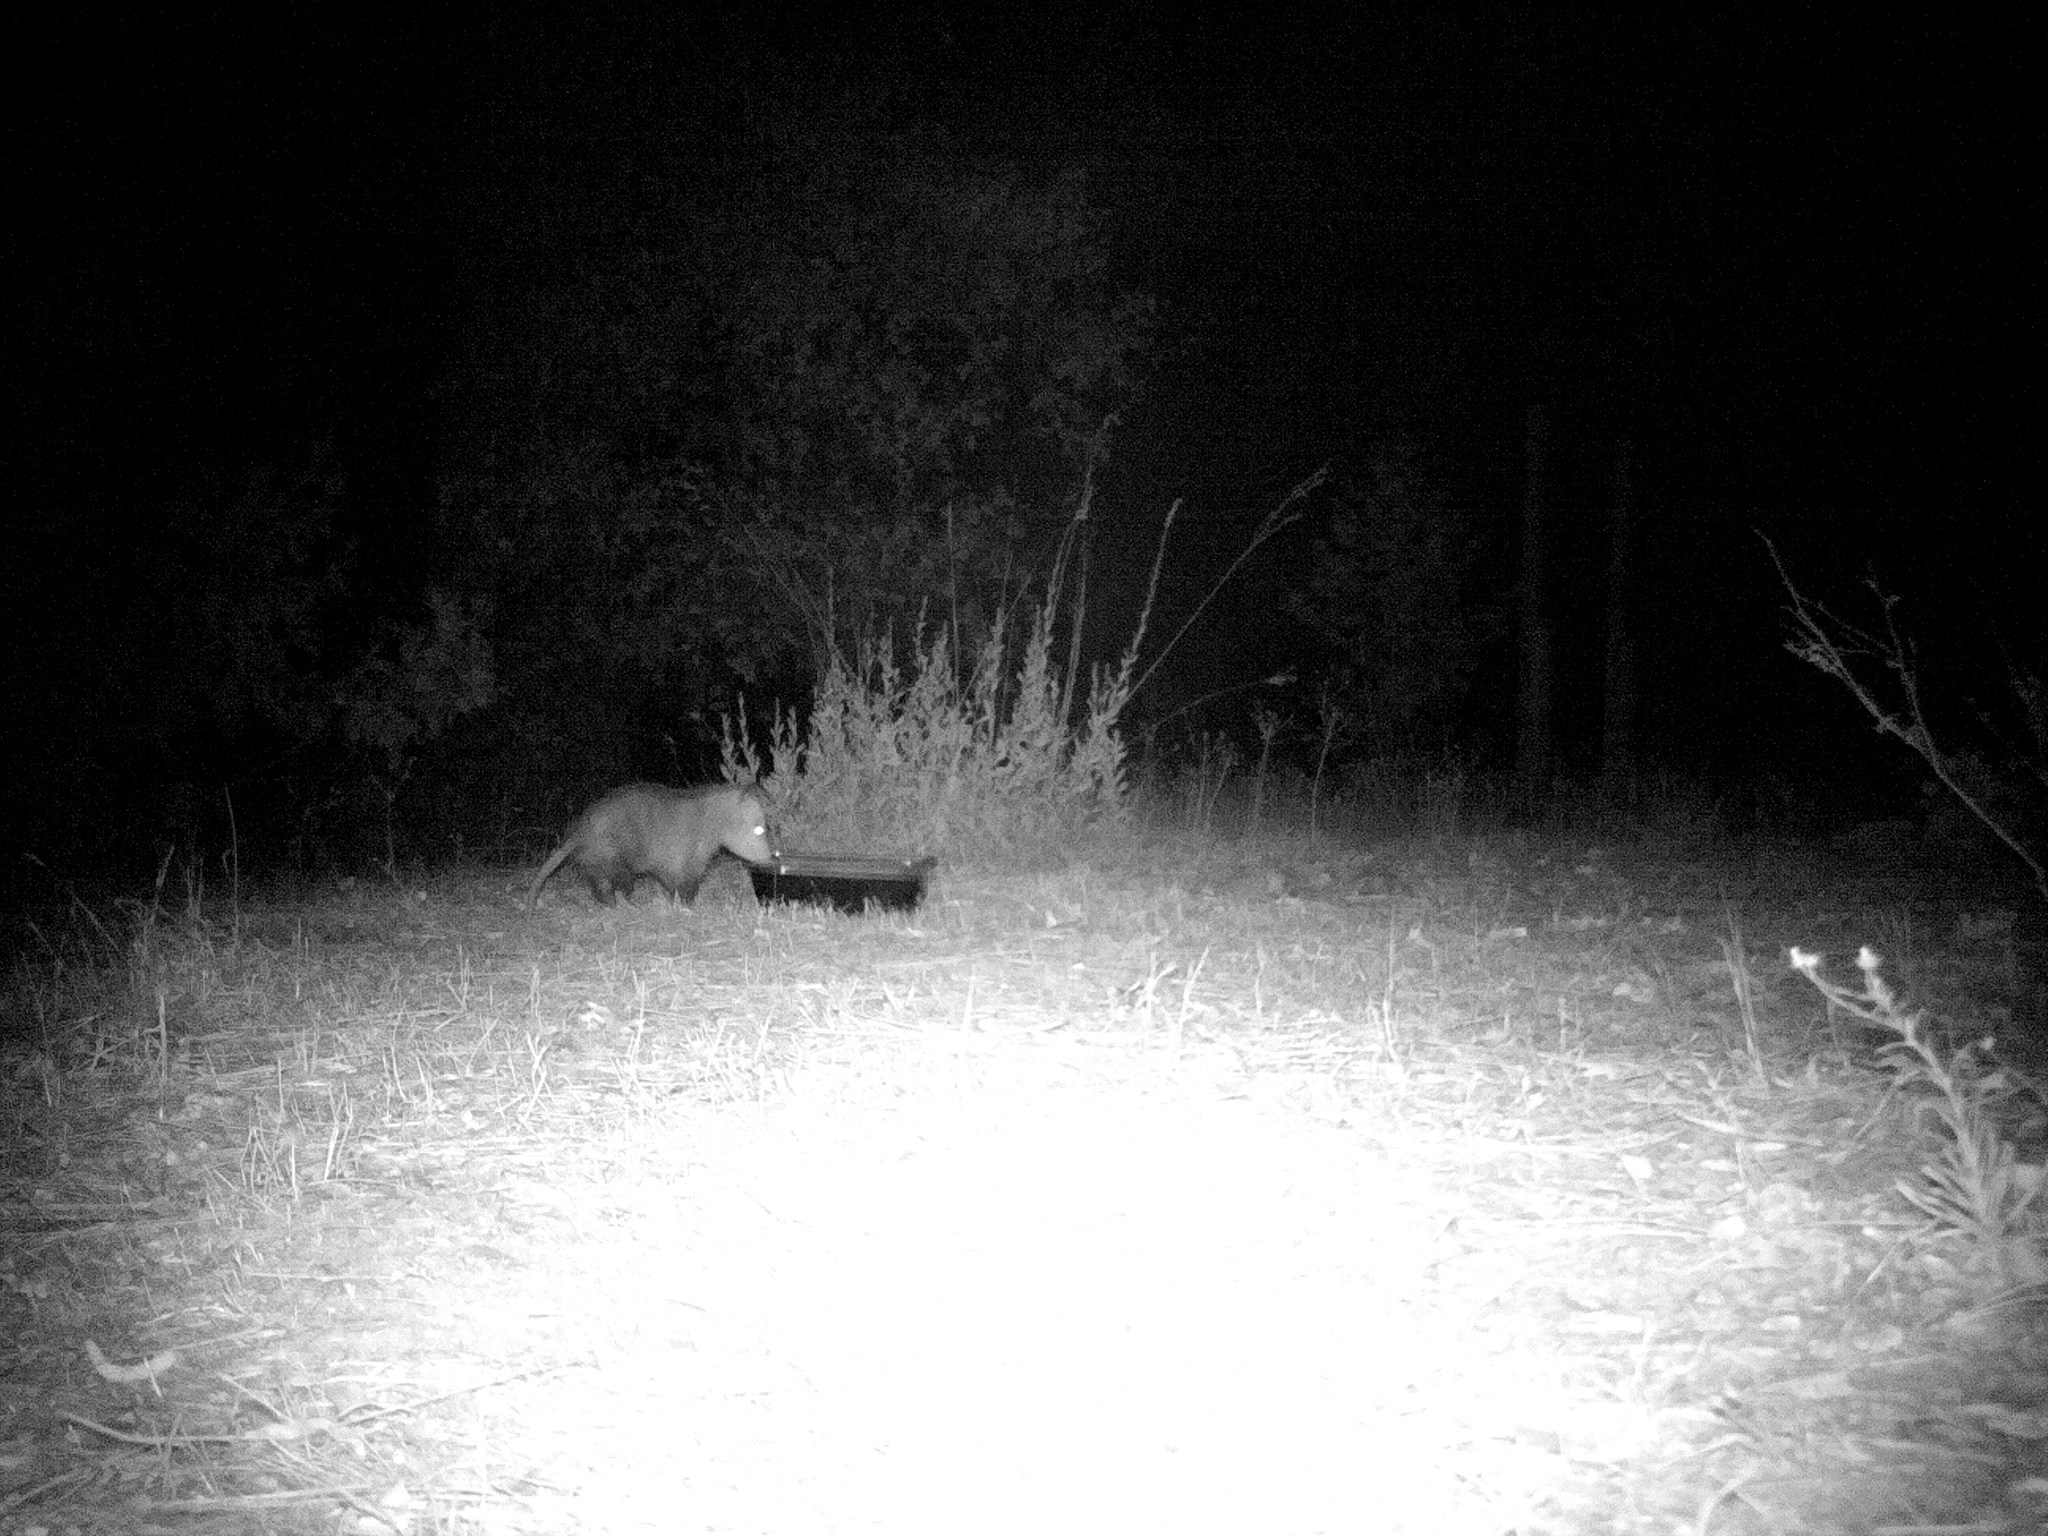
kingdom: Animalia
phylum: Chordata
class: Mammalia
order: Didelphimorphia
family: Didelphidae
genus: Didelphis
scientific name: Didelphis virginiana
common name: Virginia opossum
